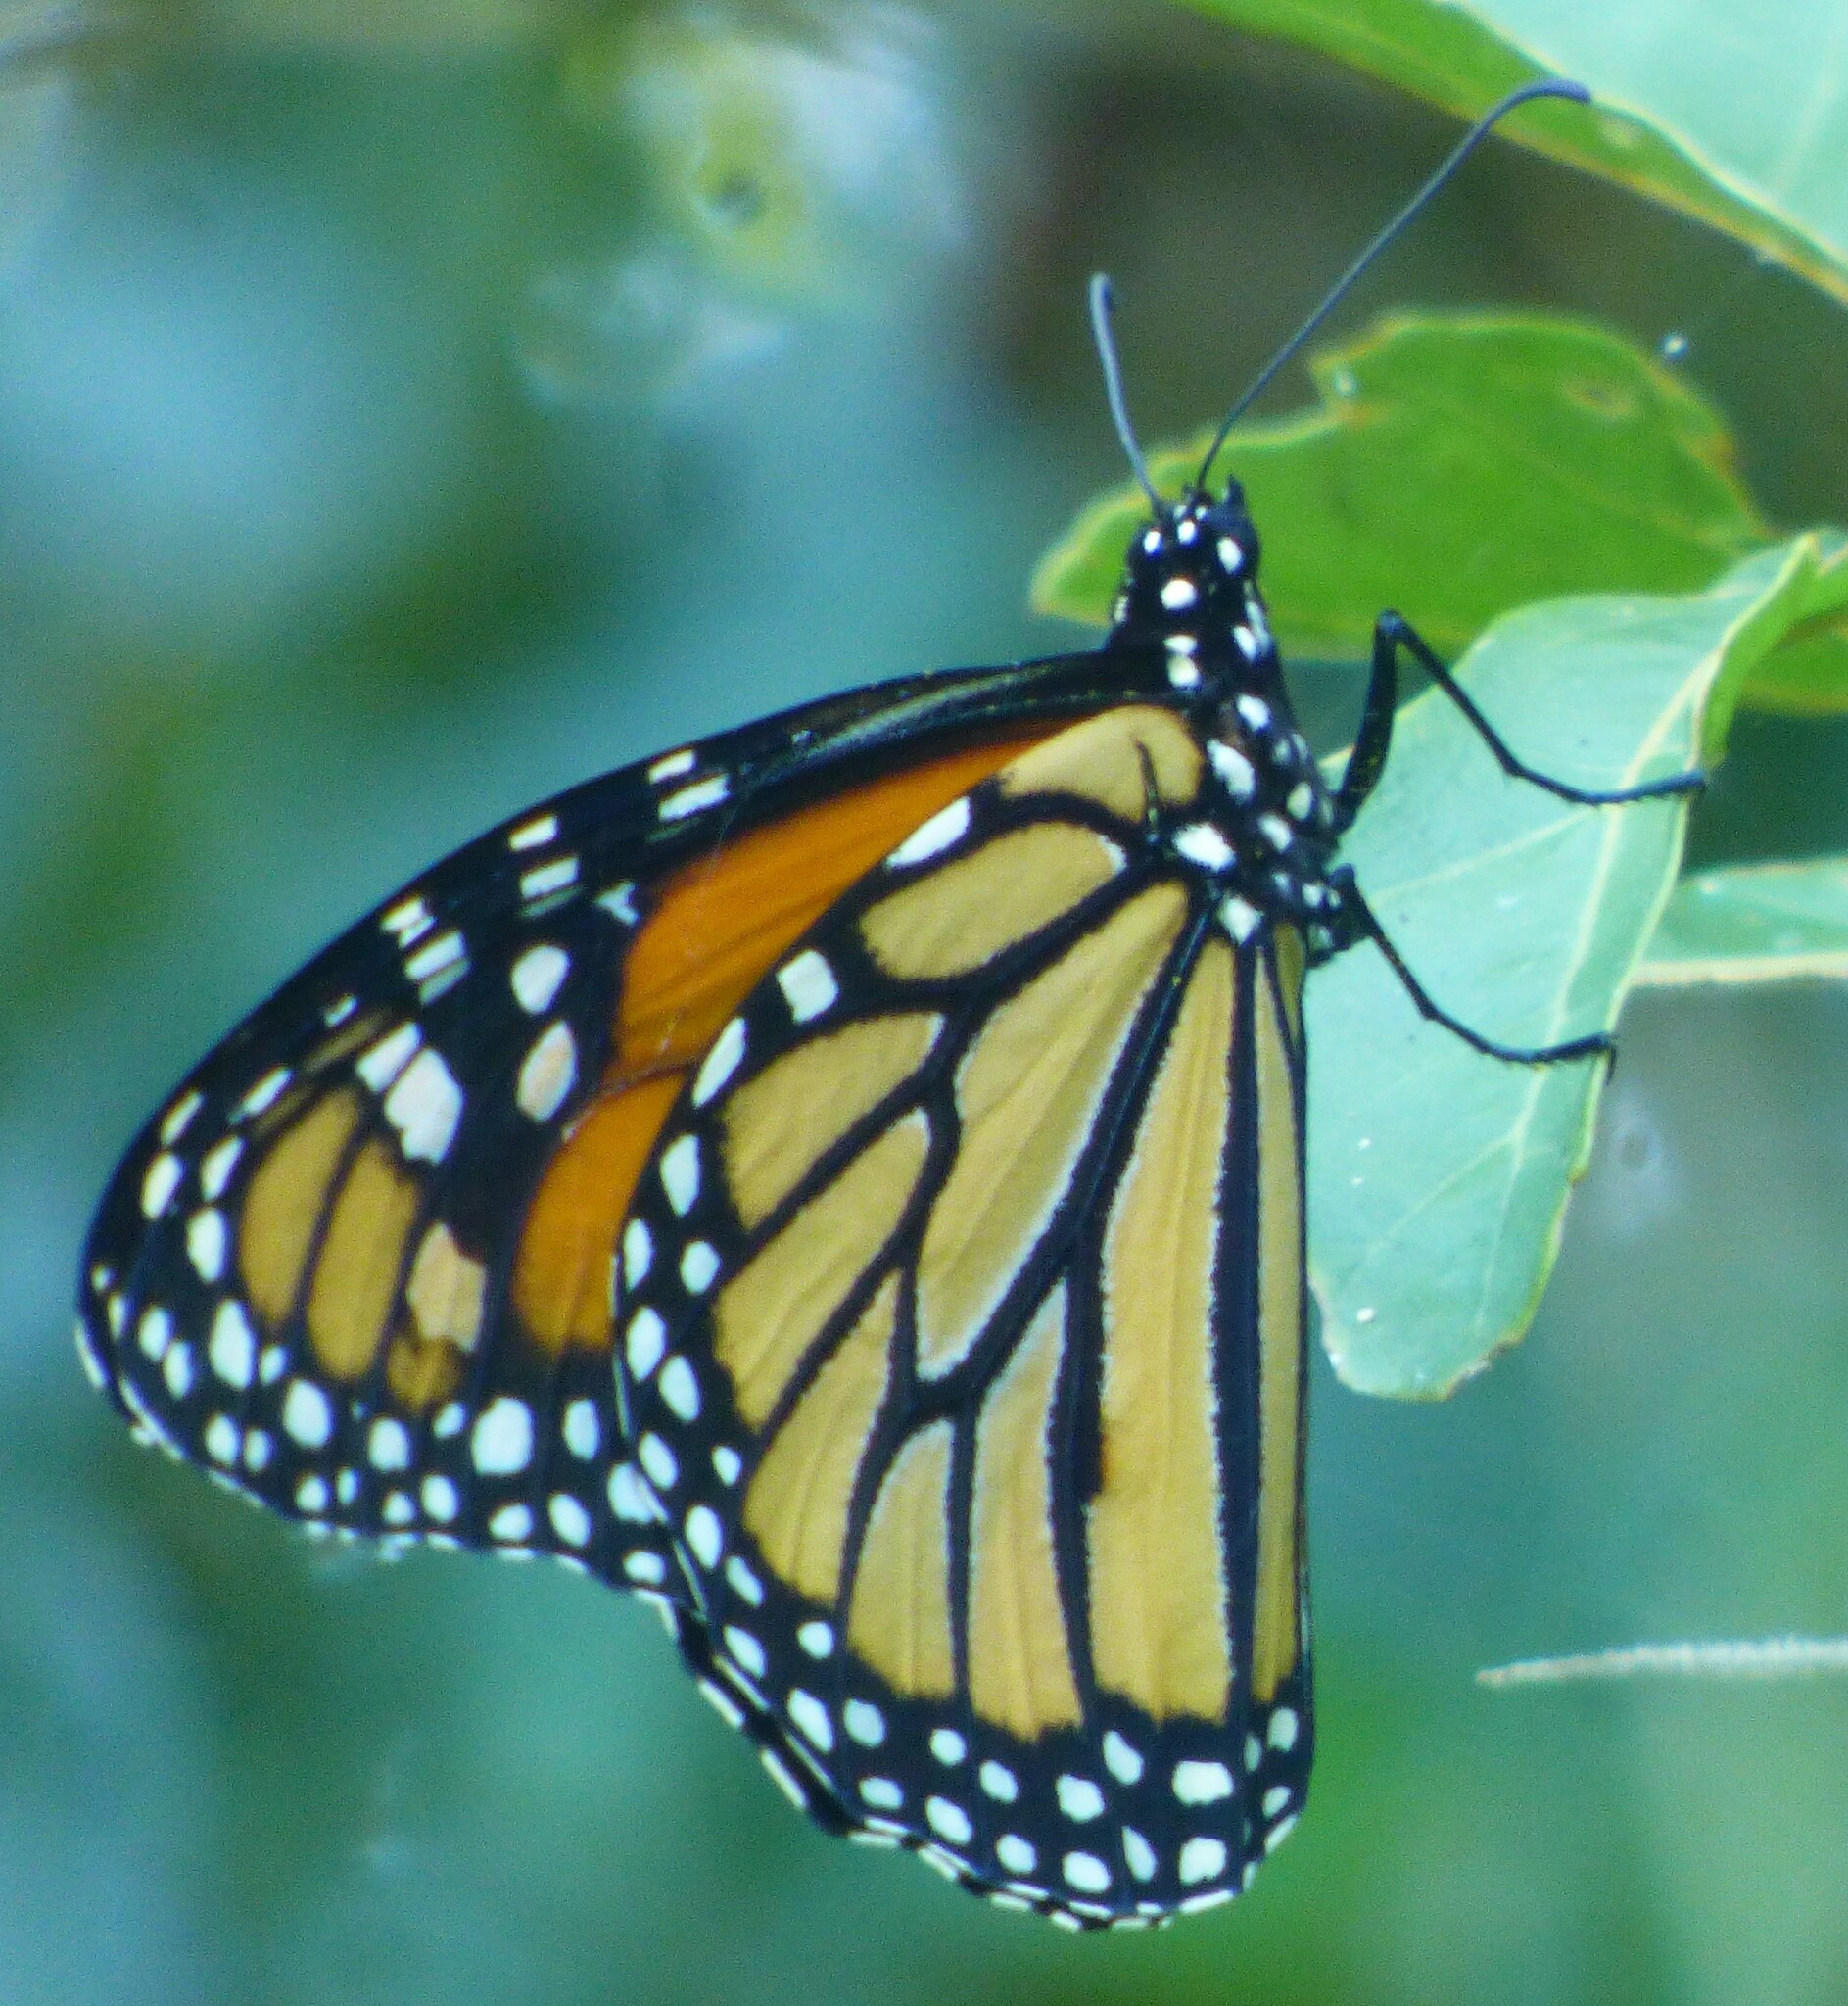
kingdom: Animalia
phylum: Arthropoda
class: Insecta
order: Lepidoptera
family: Nymphalidae
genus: Danaus
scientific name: Danaus plexippus
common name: Monarch
